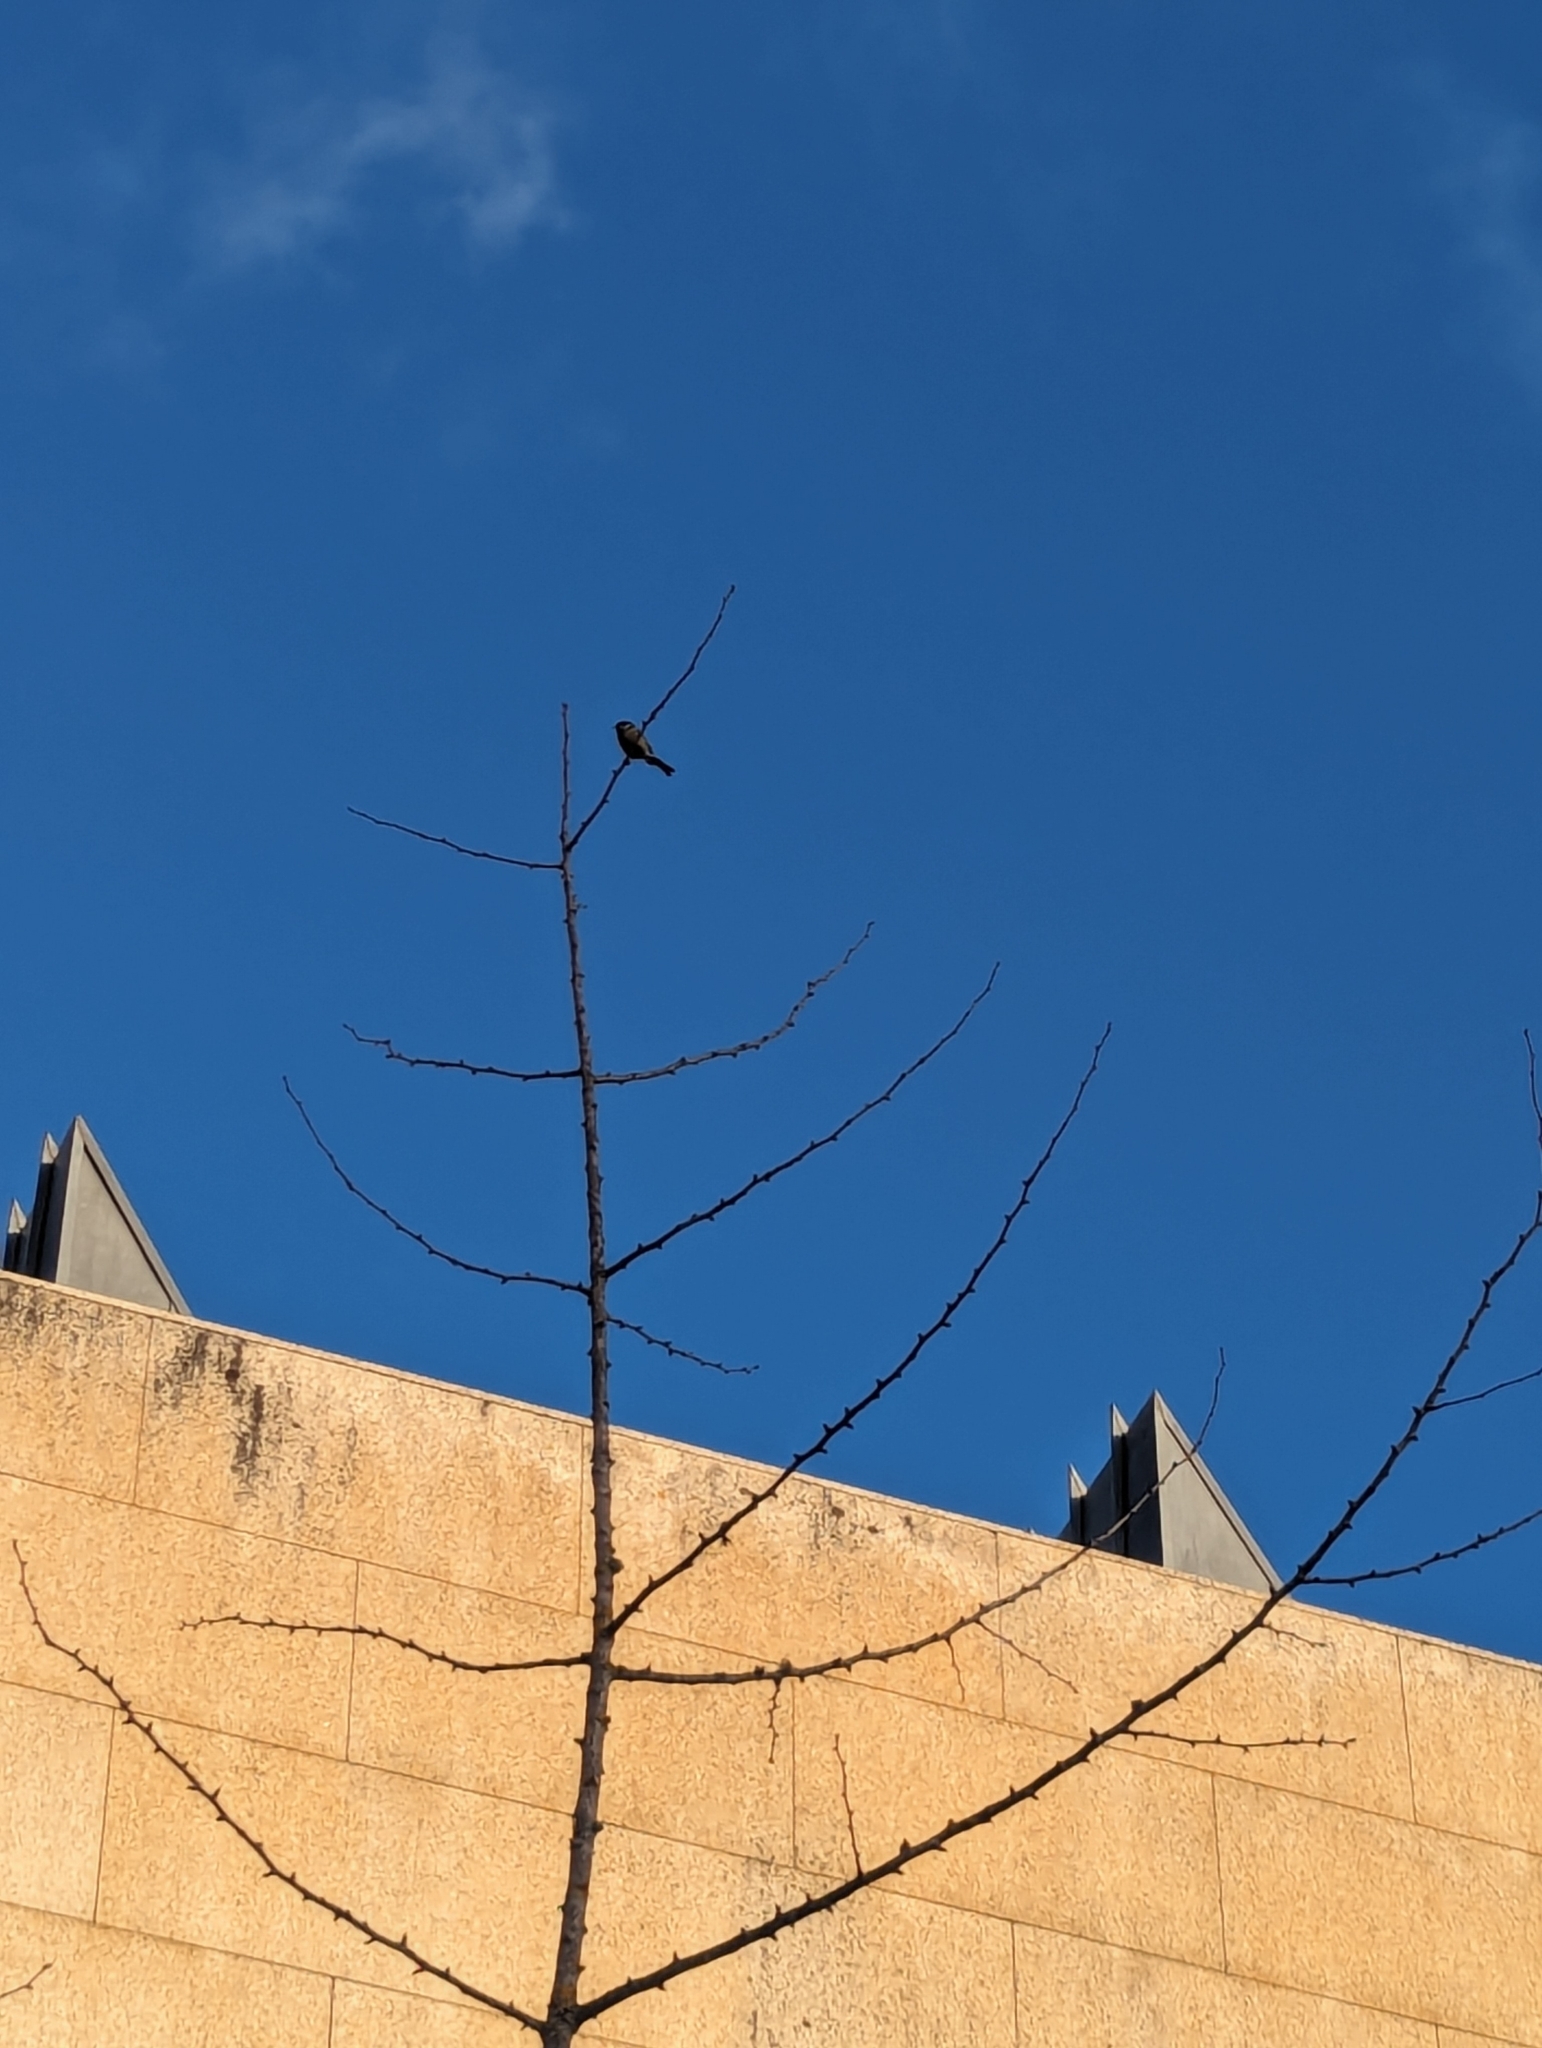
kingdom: Animalia
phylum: Chordata
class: Aves
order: Passeriformes
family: Paridae
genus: Parus
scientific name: Parus major
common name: Great tit
